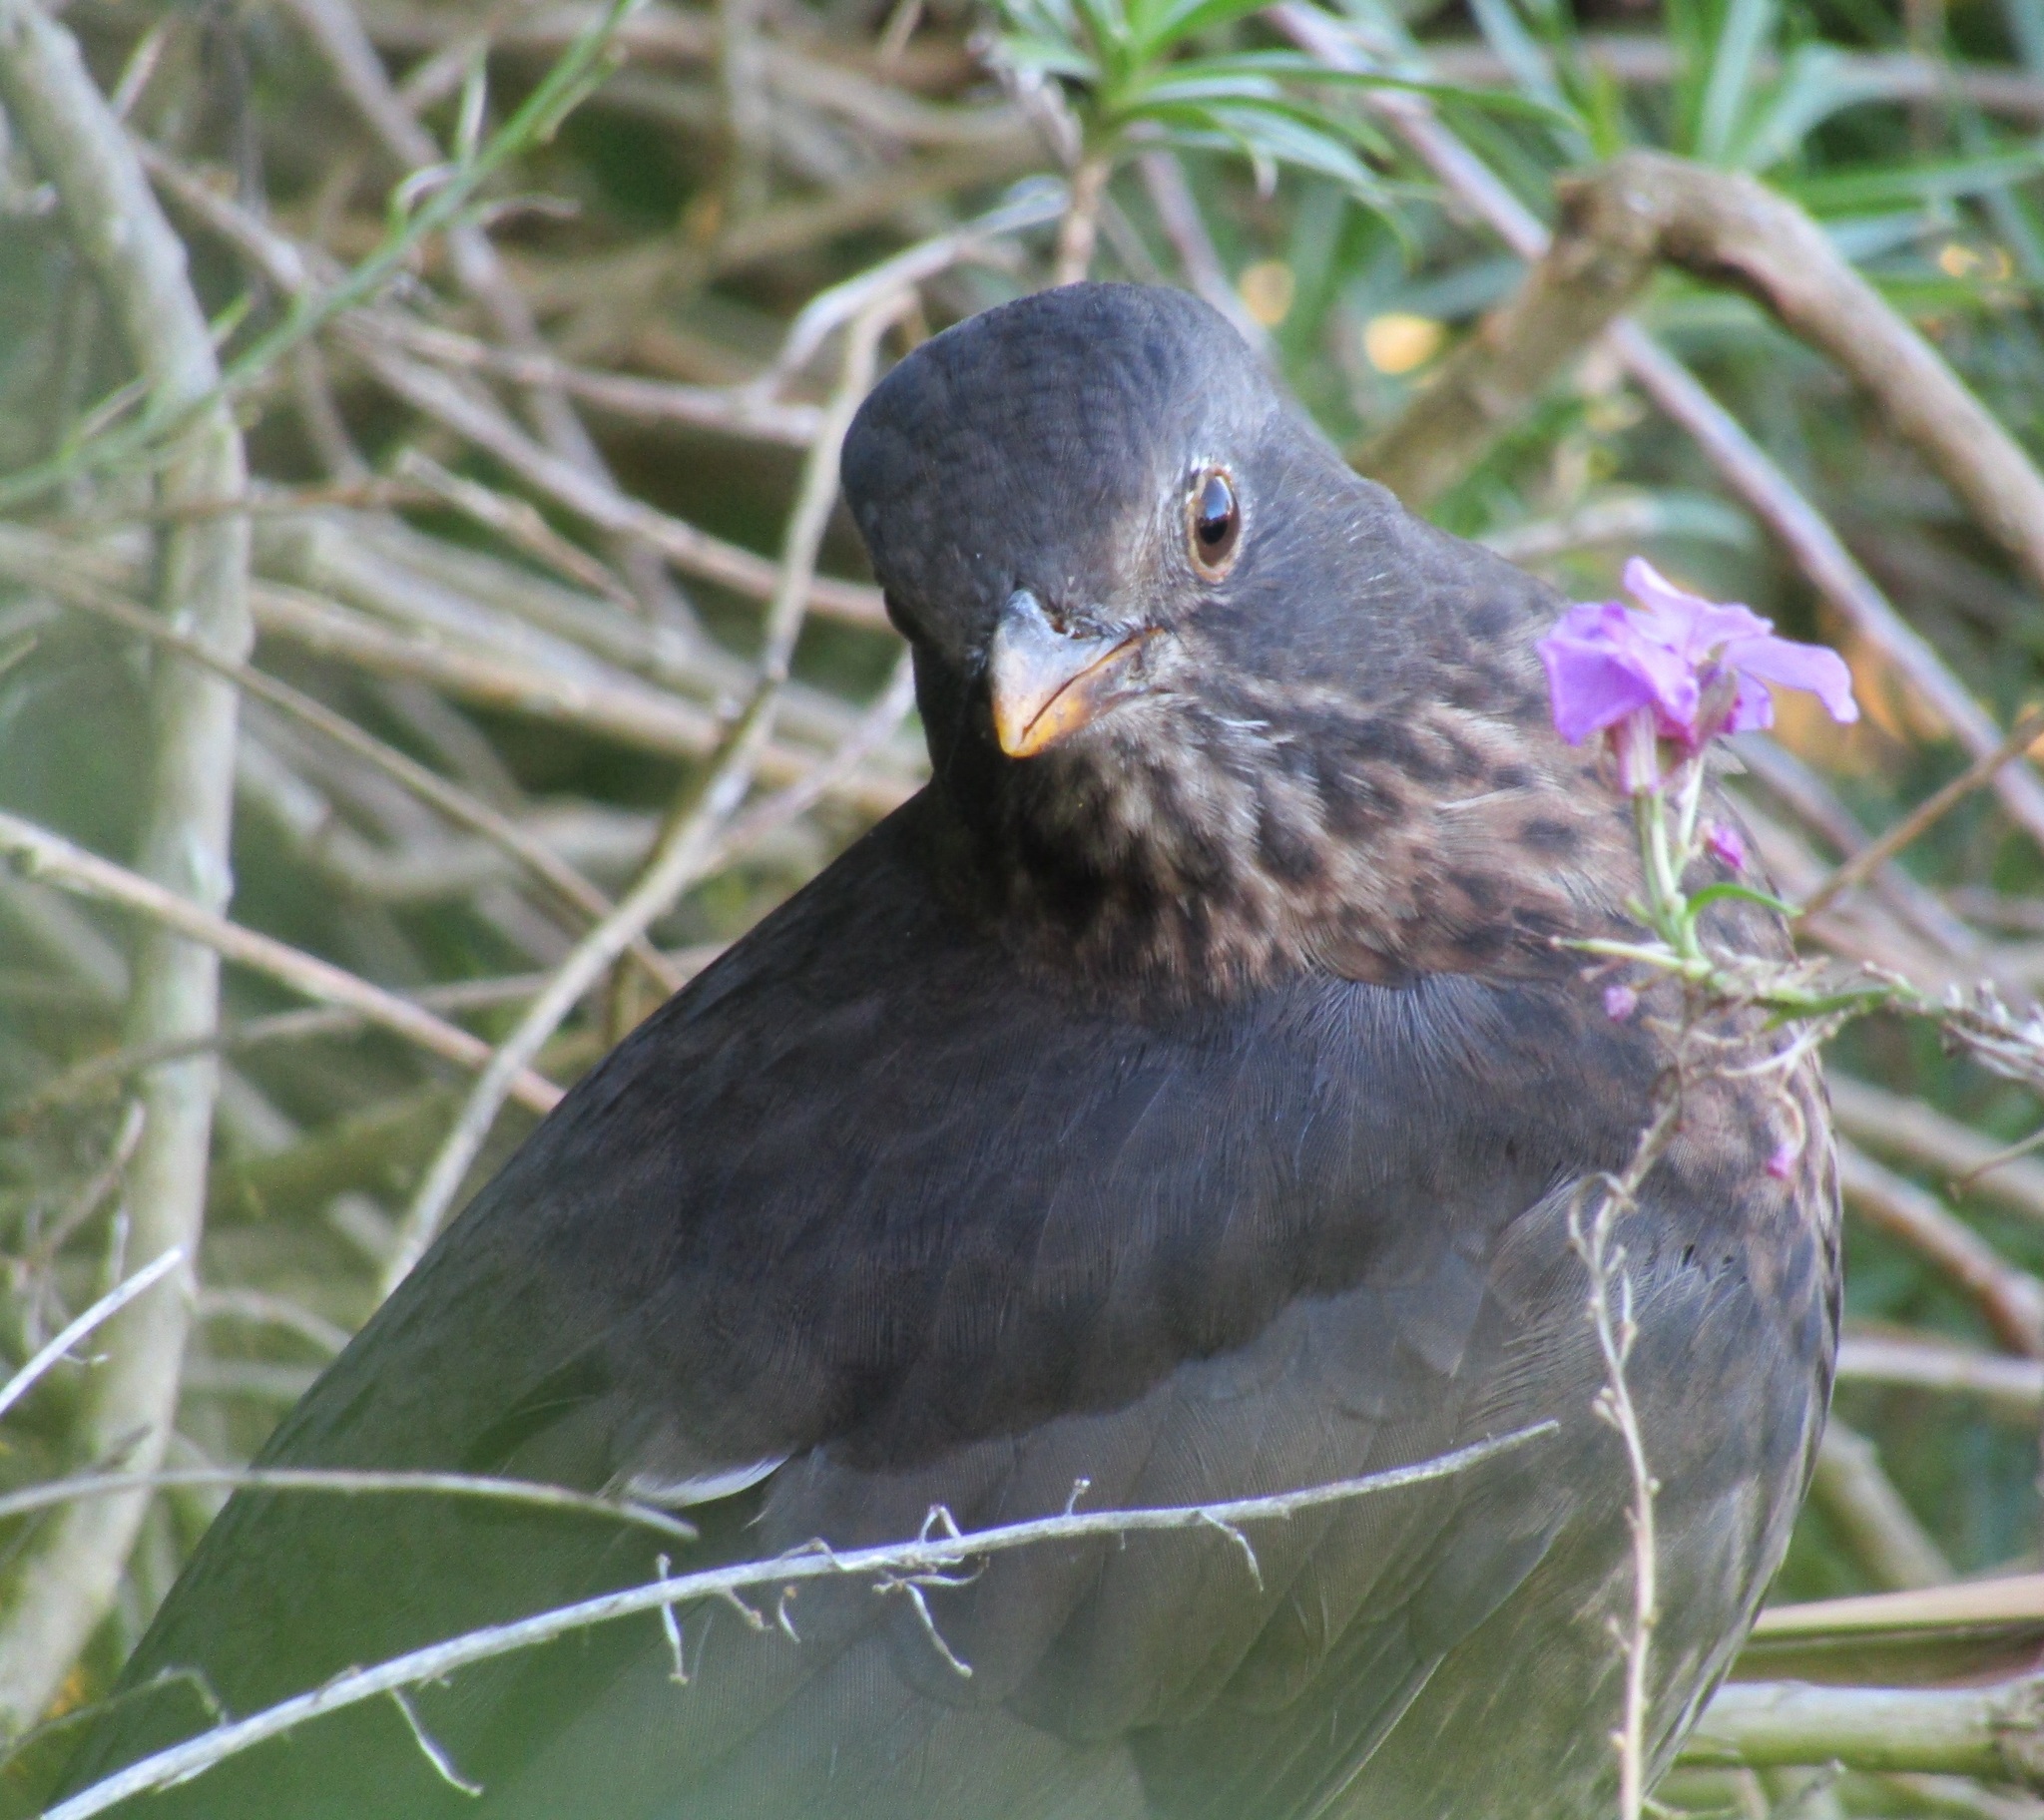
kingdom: Animalia
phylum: Chordata
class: Aves
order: Passeriformes
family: Turdidae
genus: Turdus
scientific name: Turdus merula
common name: Common blackbird
